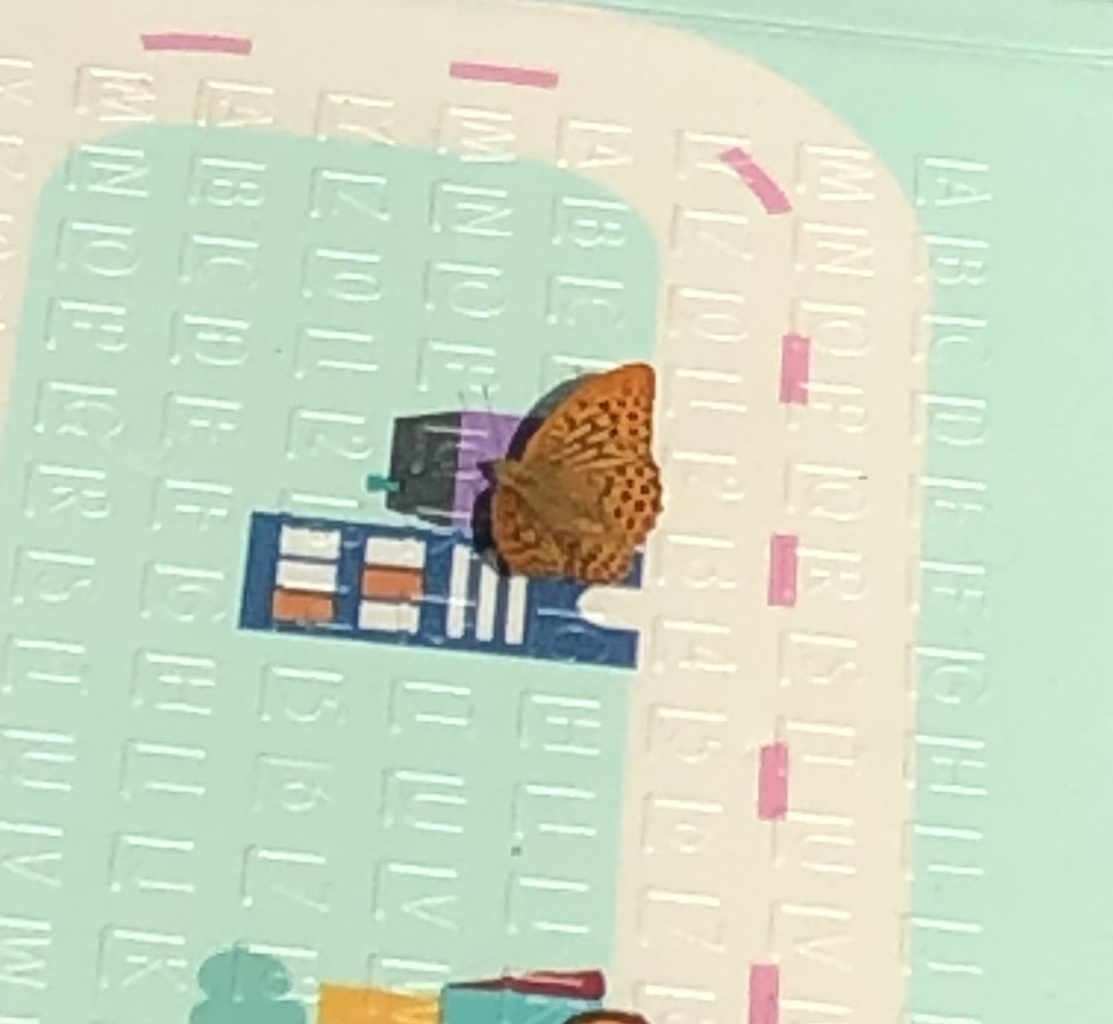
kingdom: Animalia
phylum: Arthropoda
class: Insecta
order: Lepidoptera
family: Nymphalidae
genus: Argynnis
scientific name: Argynnis paphia
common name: Silver-washed fritillary
